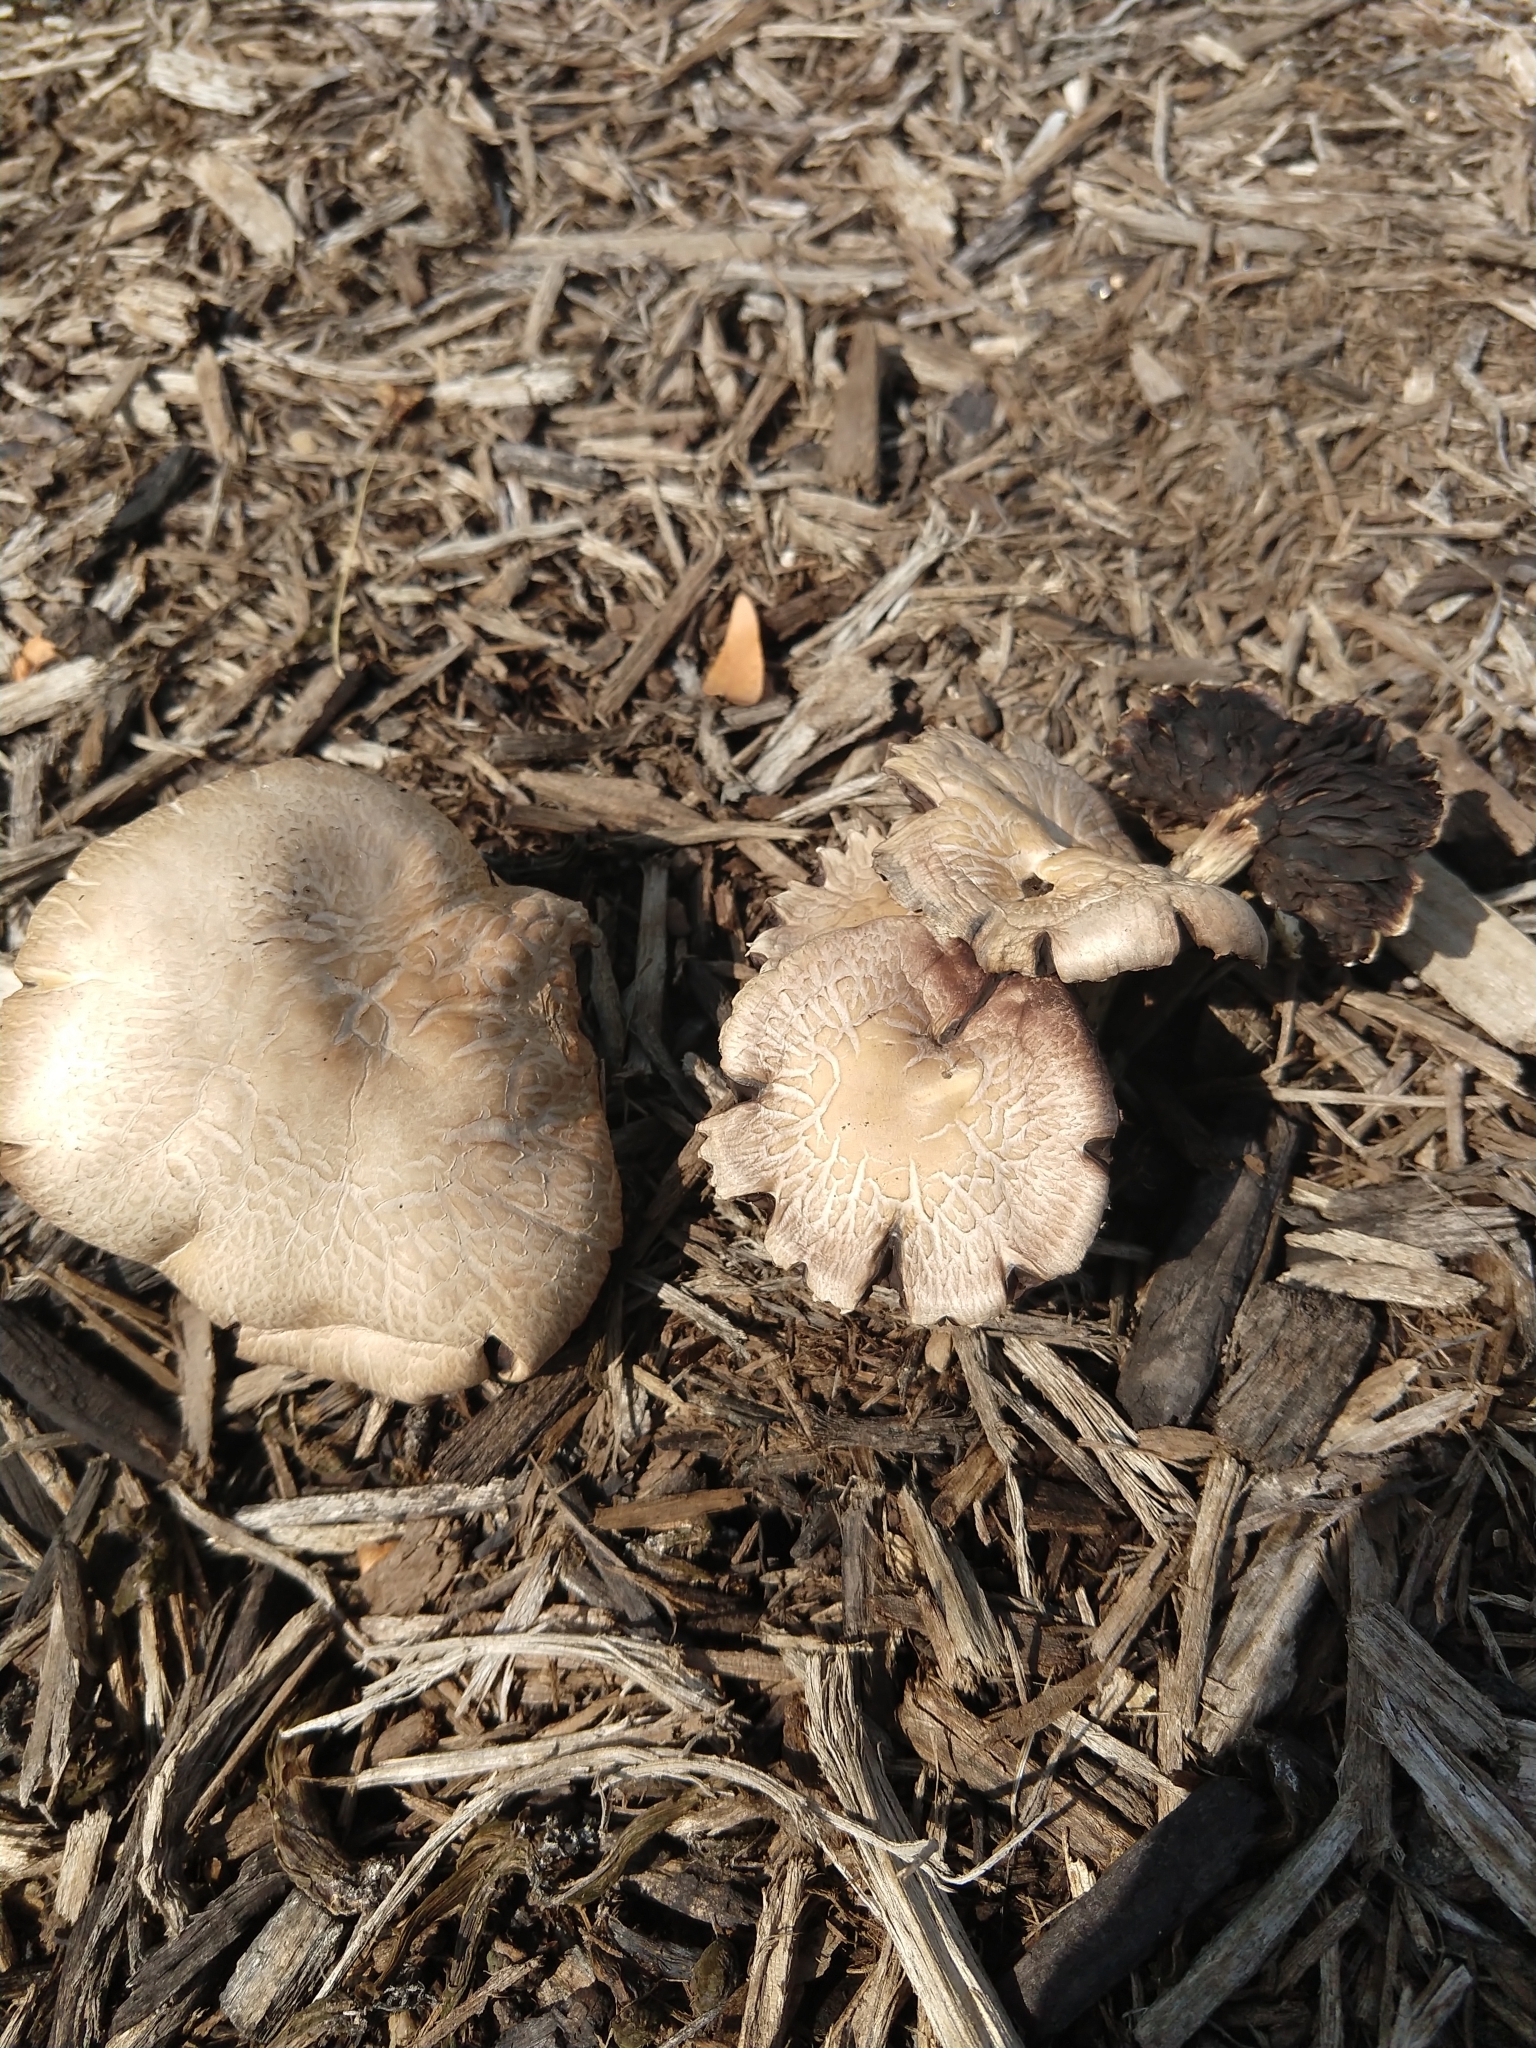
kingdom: Fungi
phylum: Basidiomycota
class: Agaricomycetes
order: Agaricales
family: Strophariaceae
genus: Stropharia
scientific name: Stropharia rugosoannulata
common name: Wine roundhead
